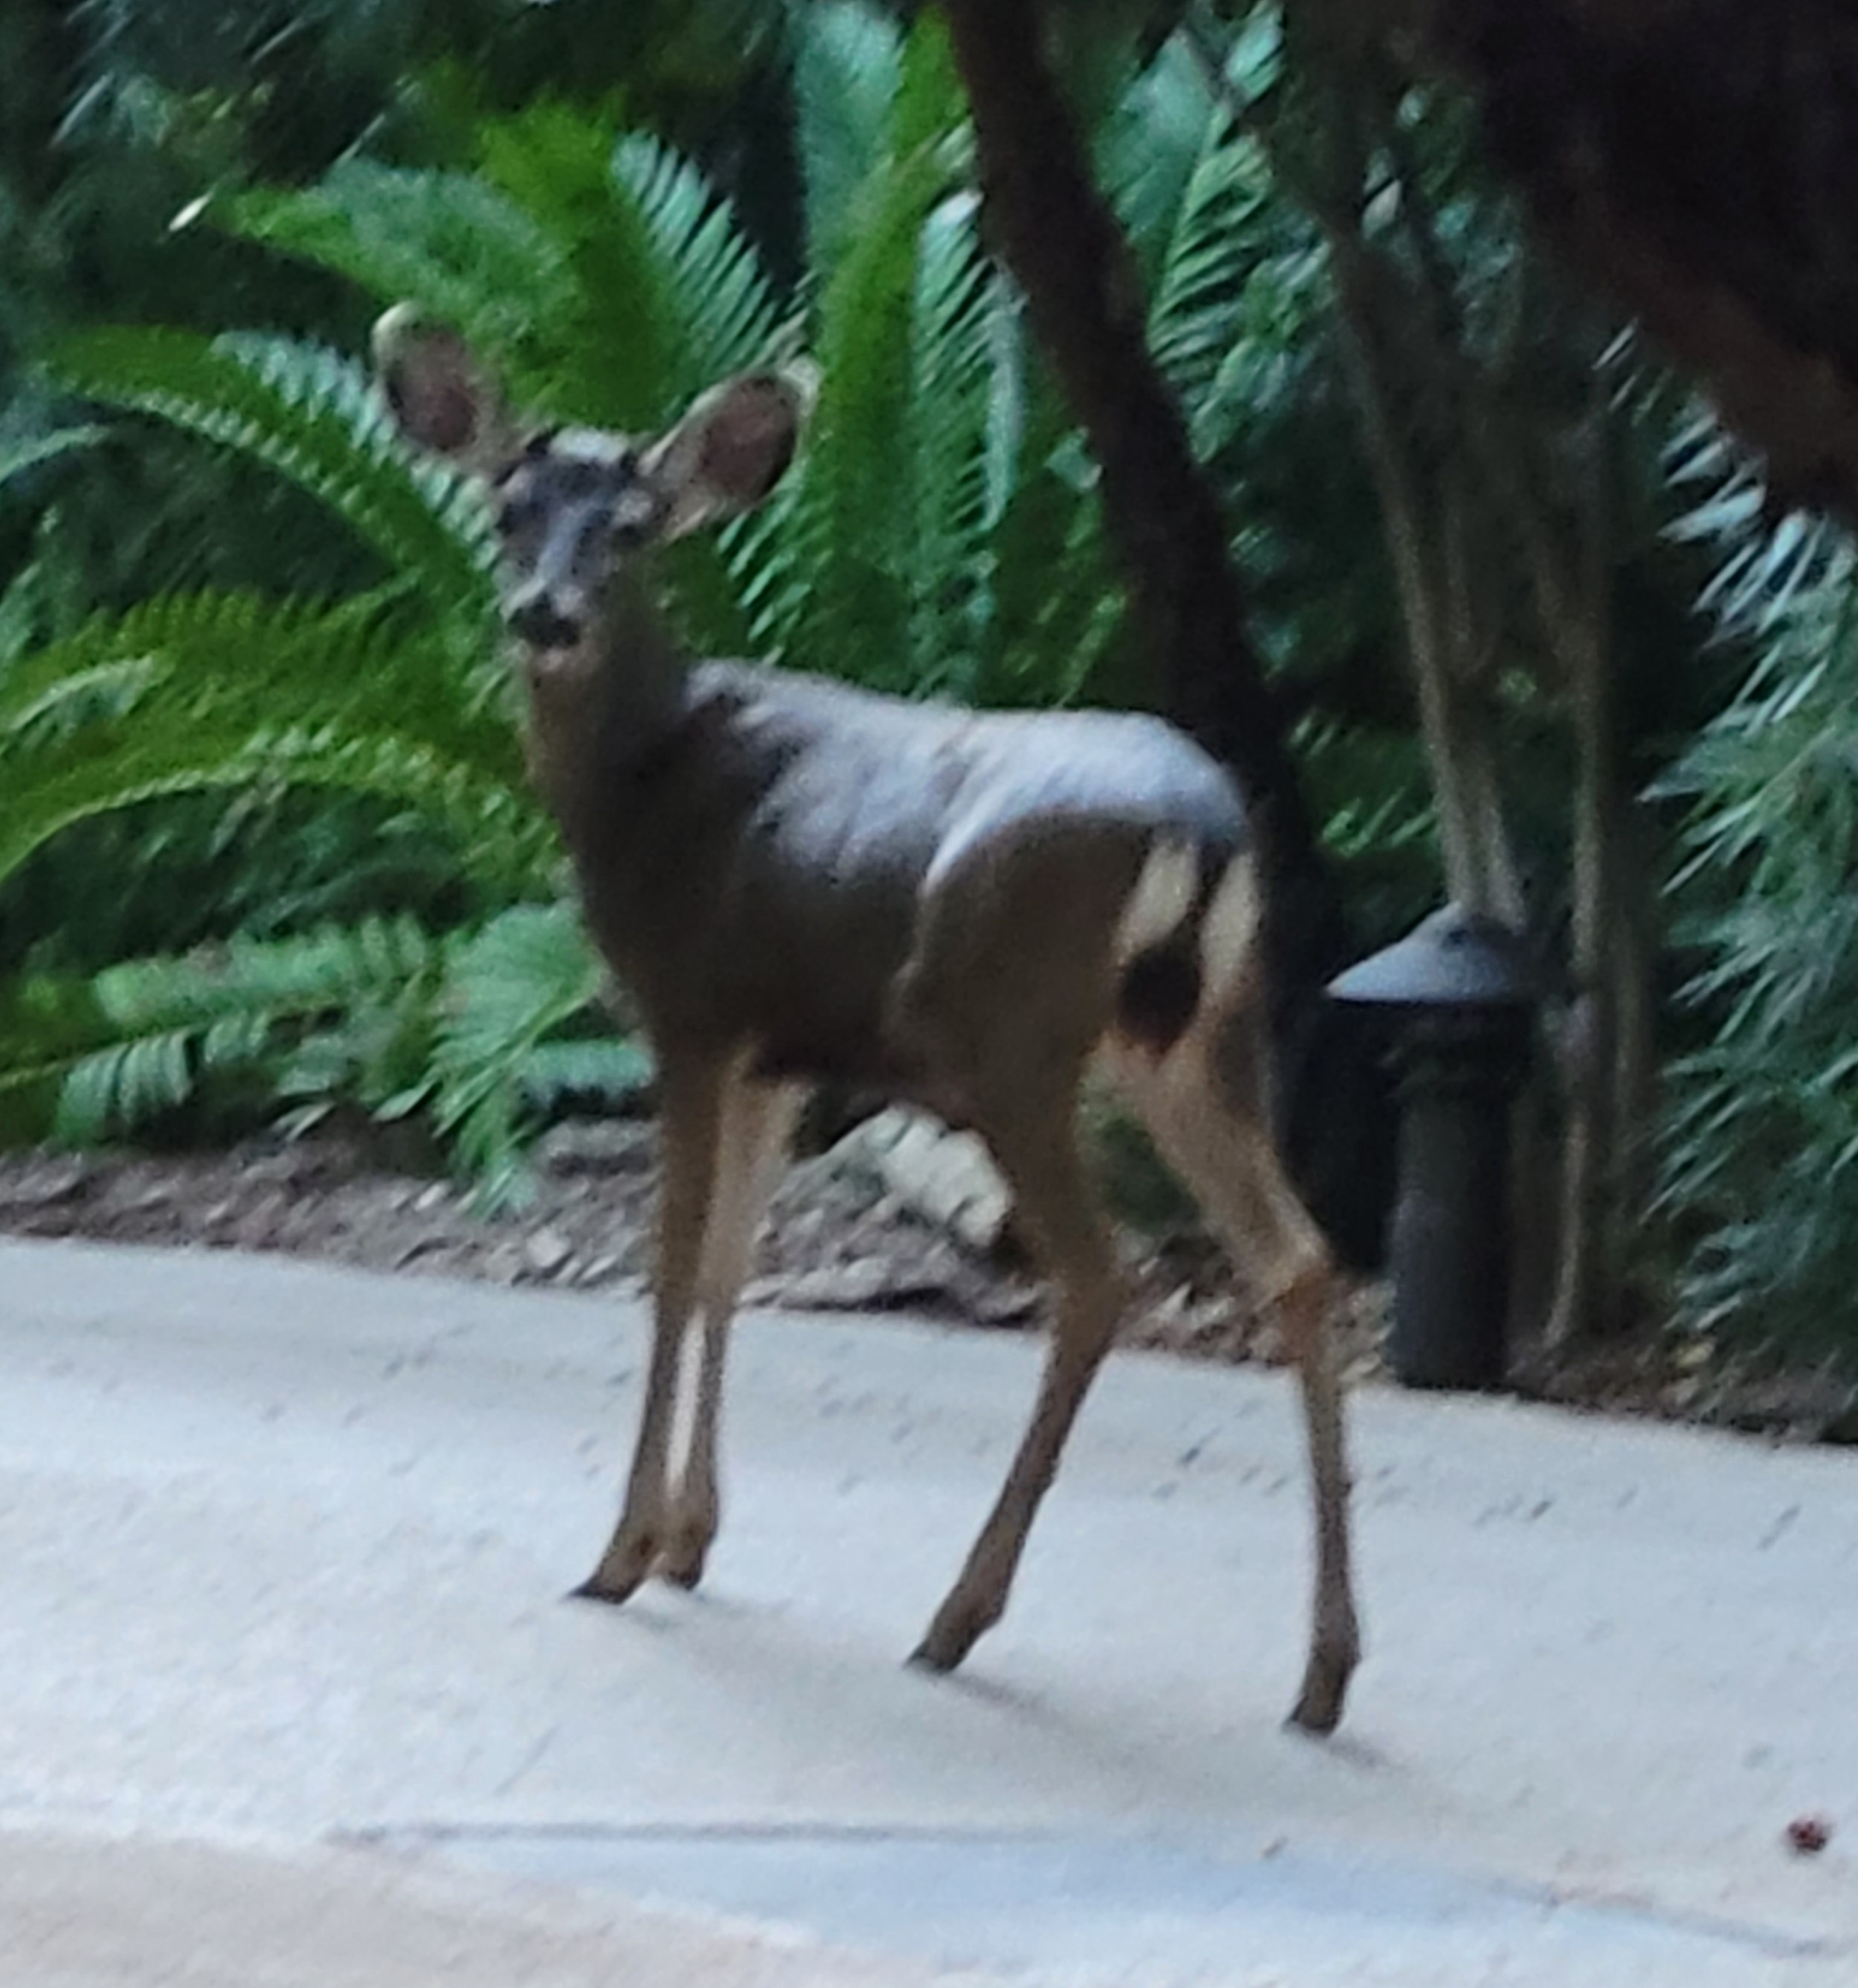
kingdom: Animalia
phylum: Chordata
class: Mammalia
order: Artiodactyla
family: Cervidae
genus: Odocoileus
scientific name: Odocoileus hemionus
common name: Mule deer
